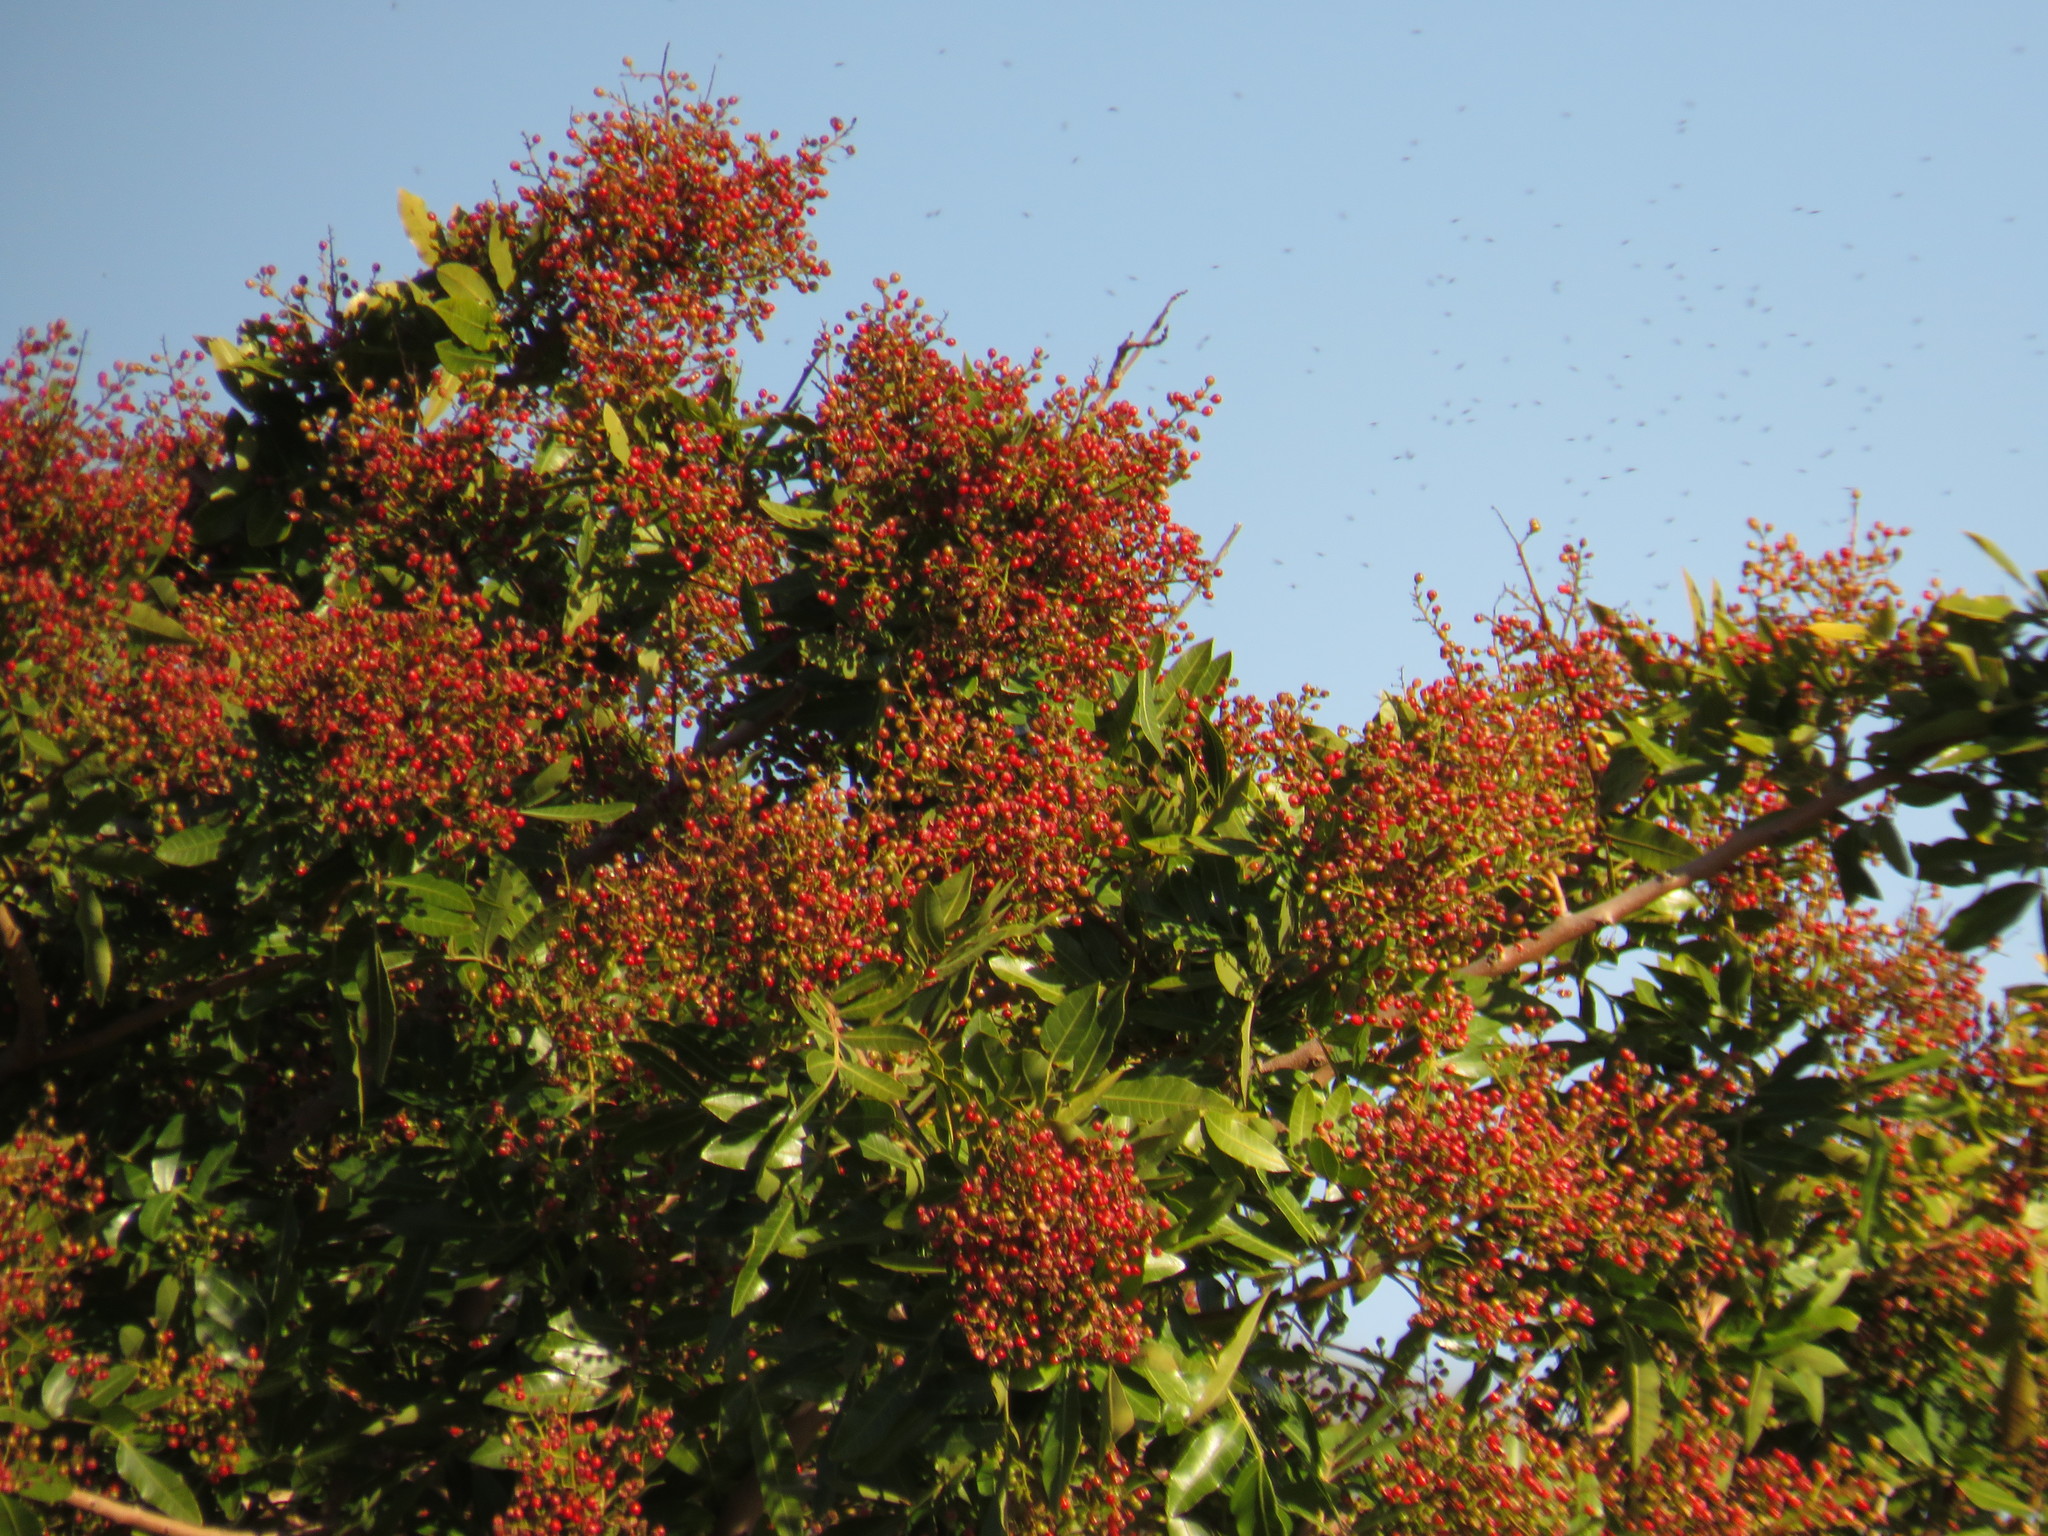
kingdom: Plantae
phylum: Tracheophyta
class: Magnoliopsida
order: Sapindales
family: Anacardiaceae
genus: Schinus
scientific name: Schinus terebinthifolia
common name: Brazilian peppertree
